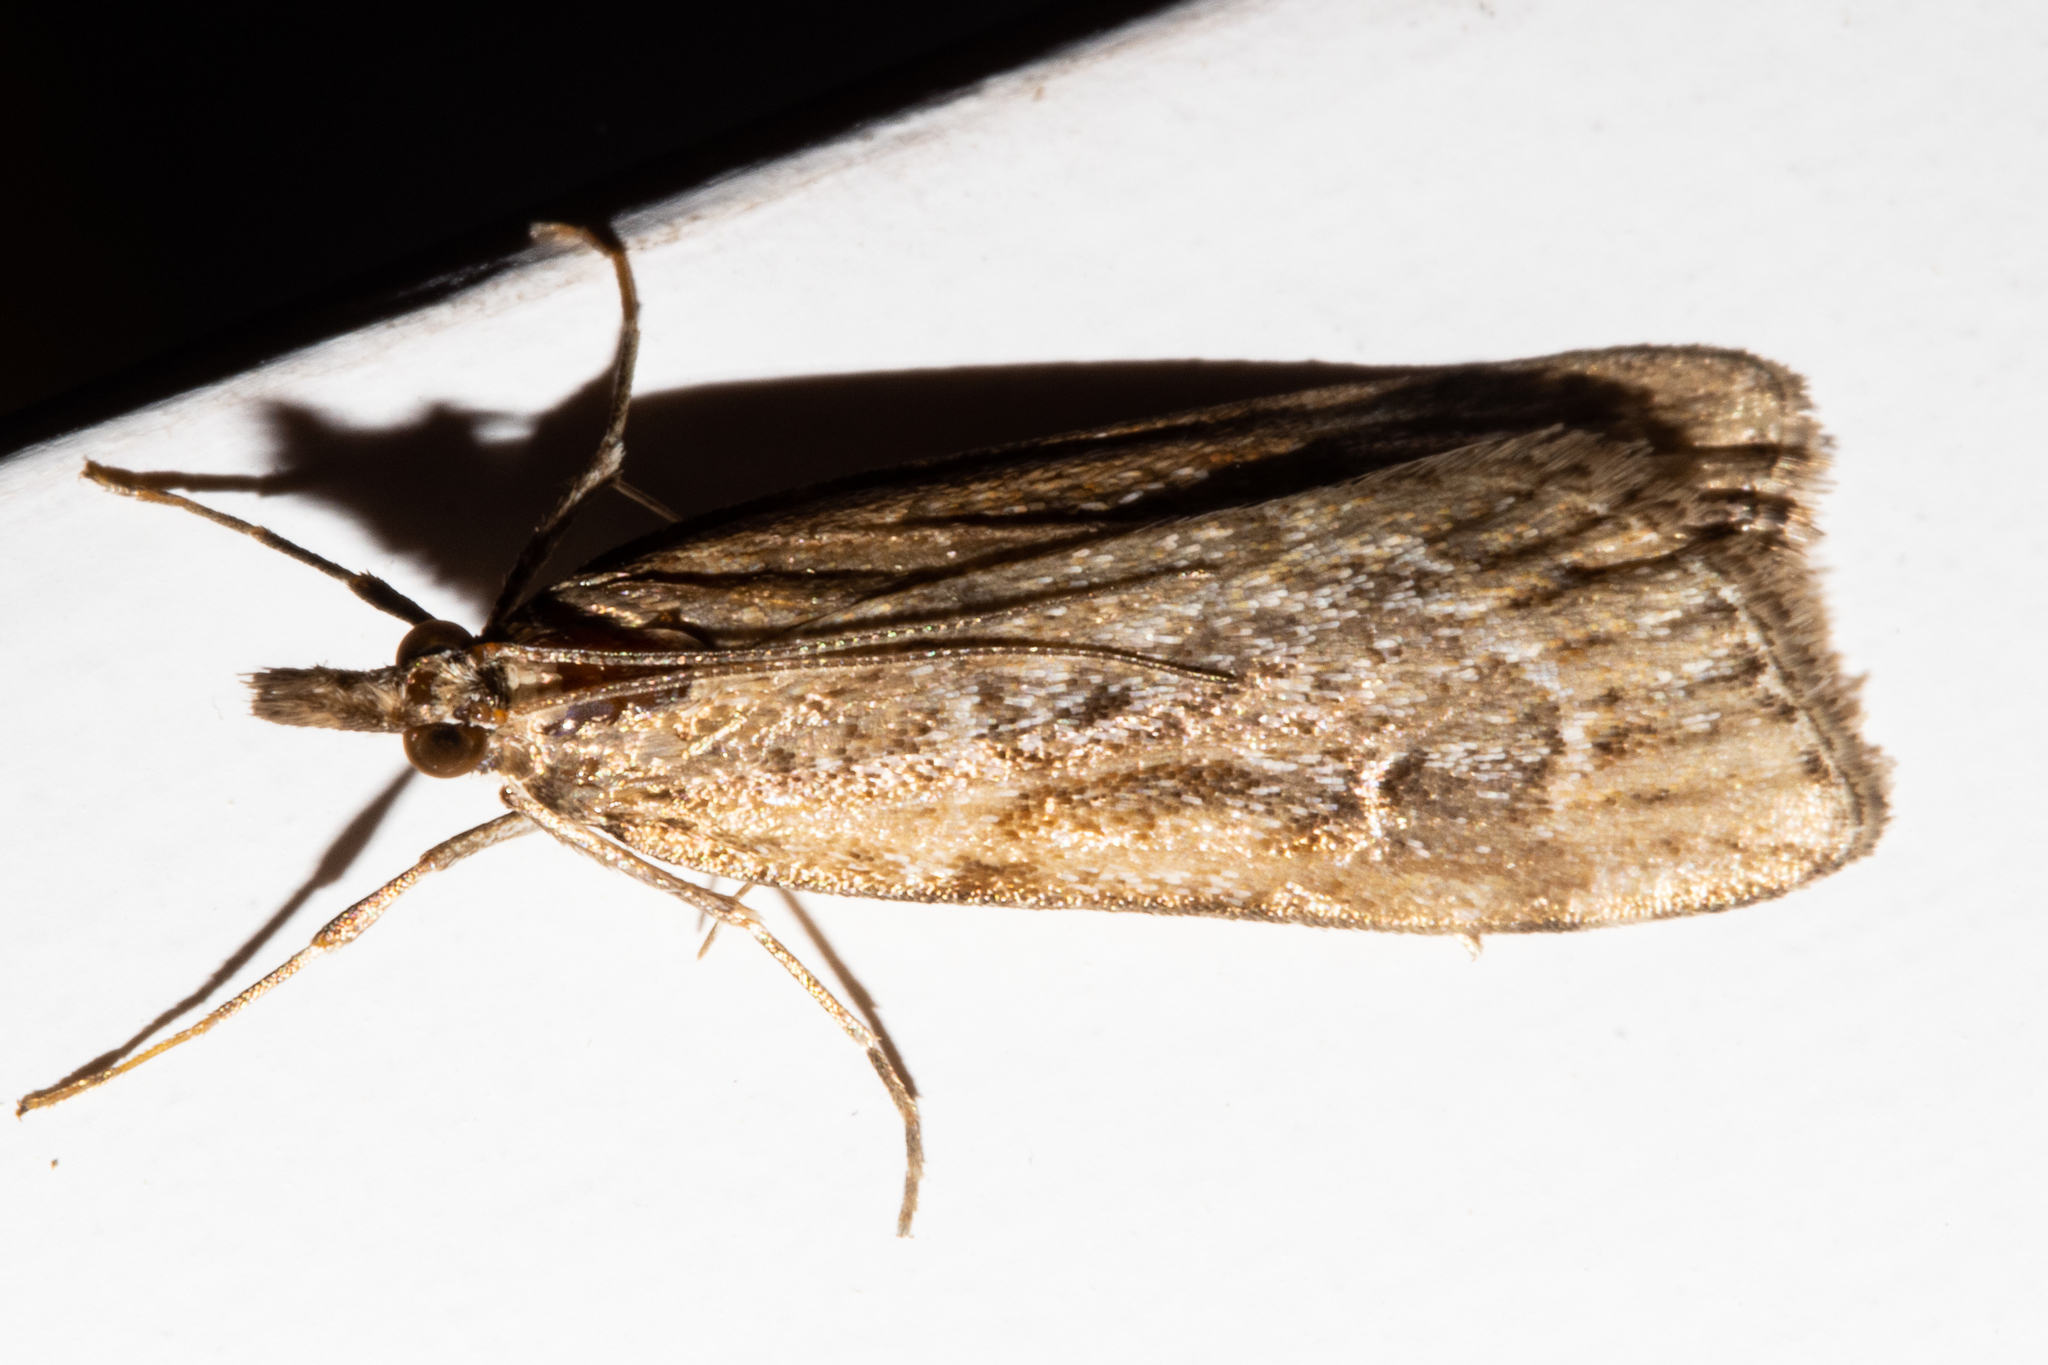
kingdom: Animalia
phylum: Arthropoda
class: Insecta
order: Lepidoptera
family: Crambidae
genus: Eudonia
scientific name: Eudonia chalara
